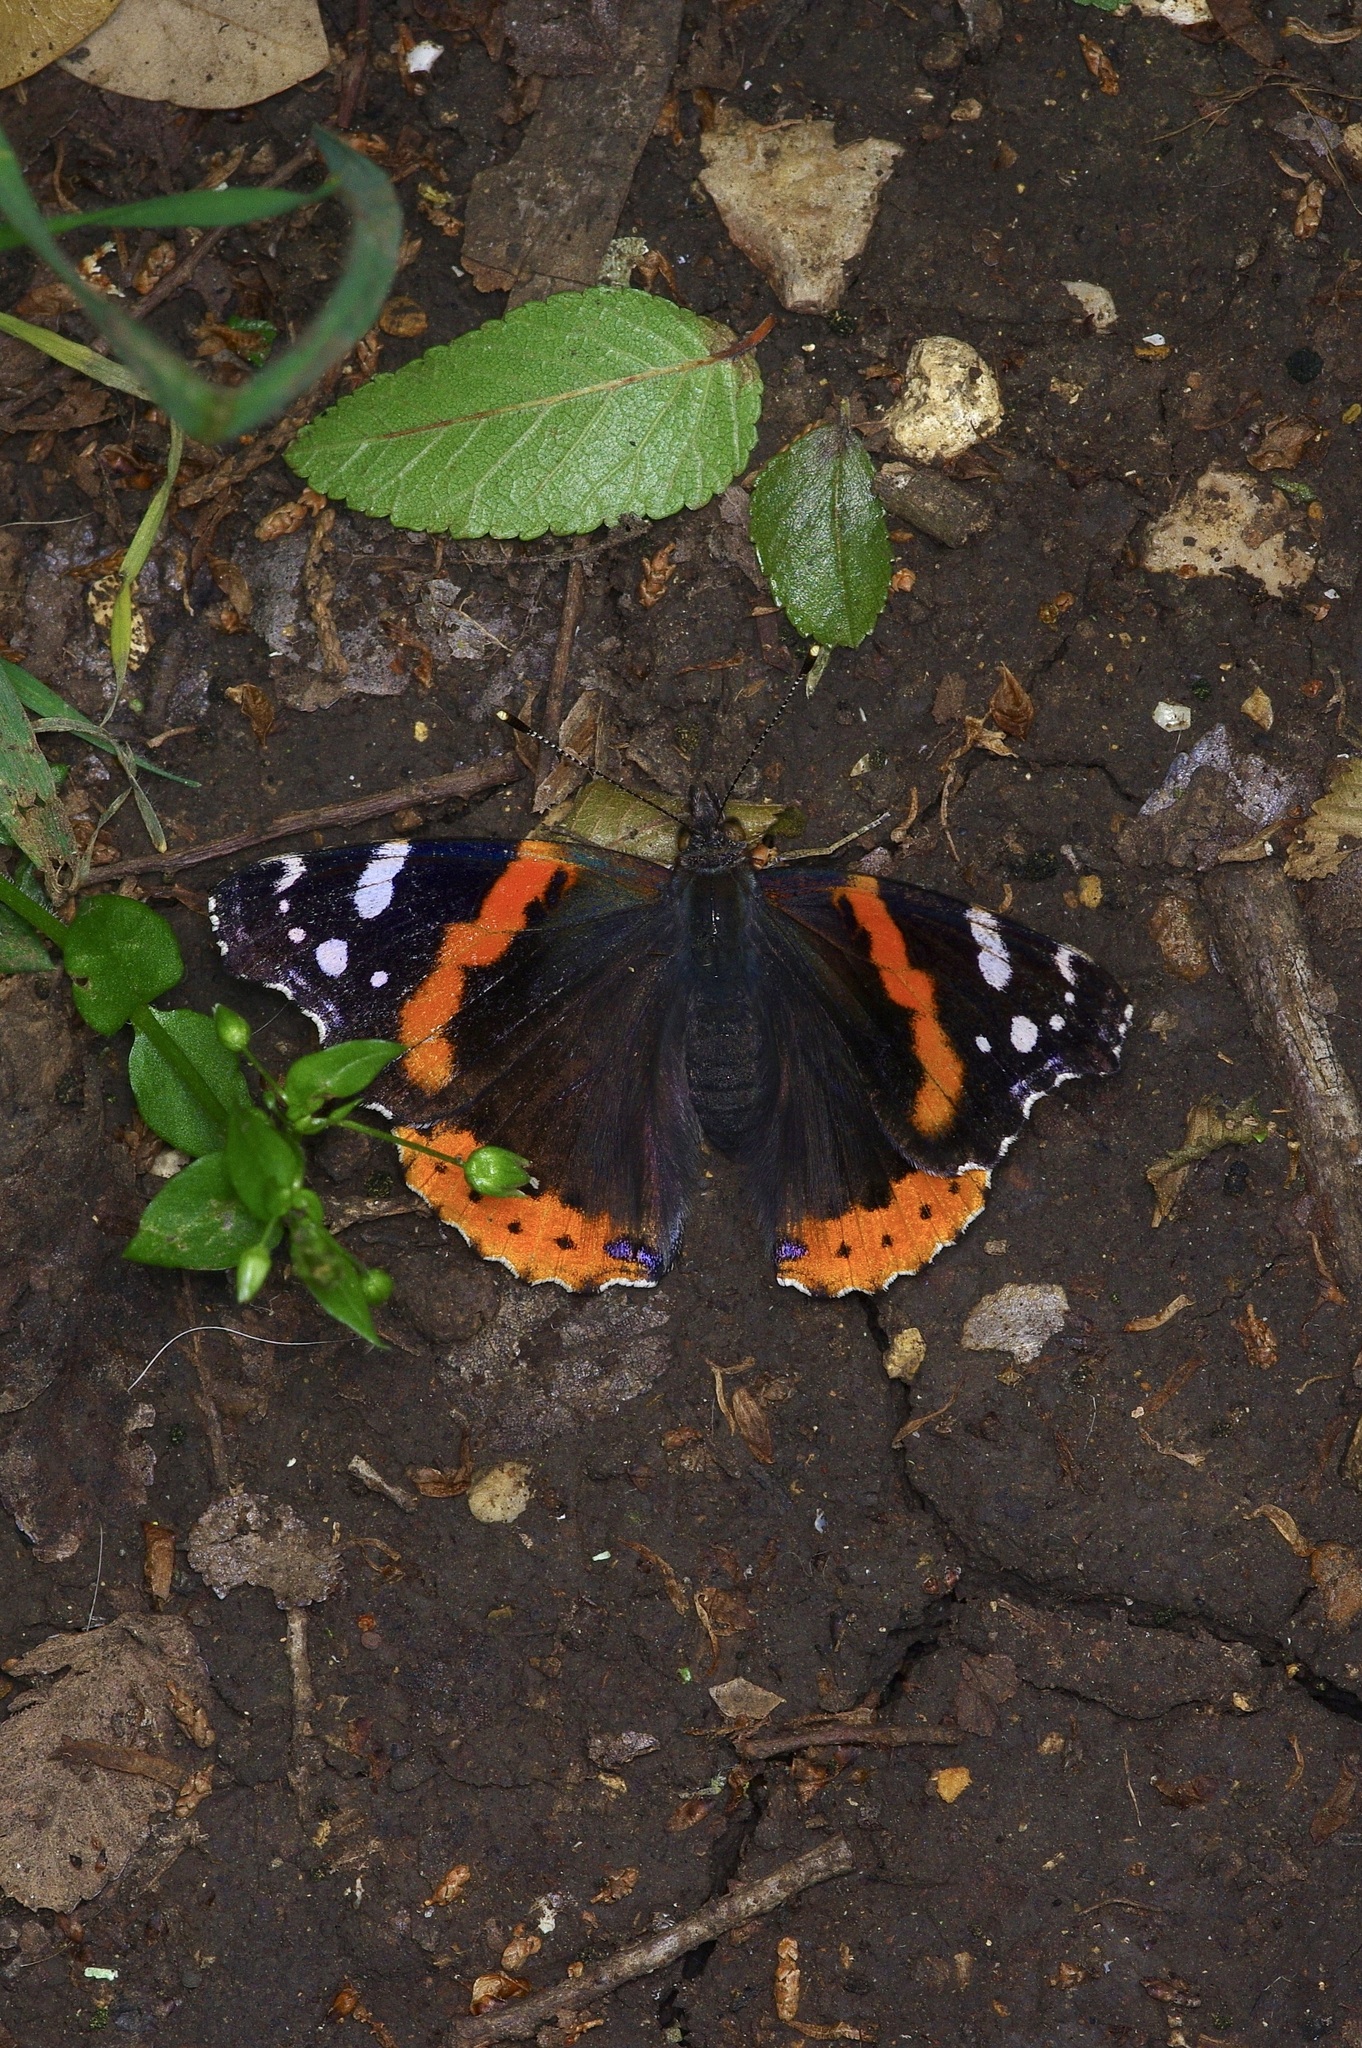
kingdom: Animalia
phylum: Arthropoda
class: Insecta
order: Lepidoptera
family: Nymphalidae
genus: Vanessa
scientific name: Vanessa atalanta
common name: Red admiral
